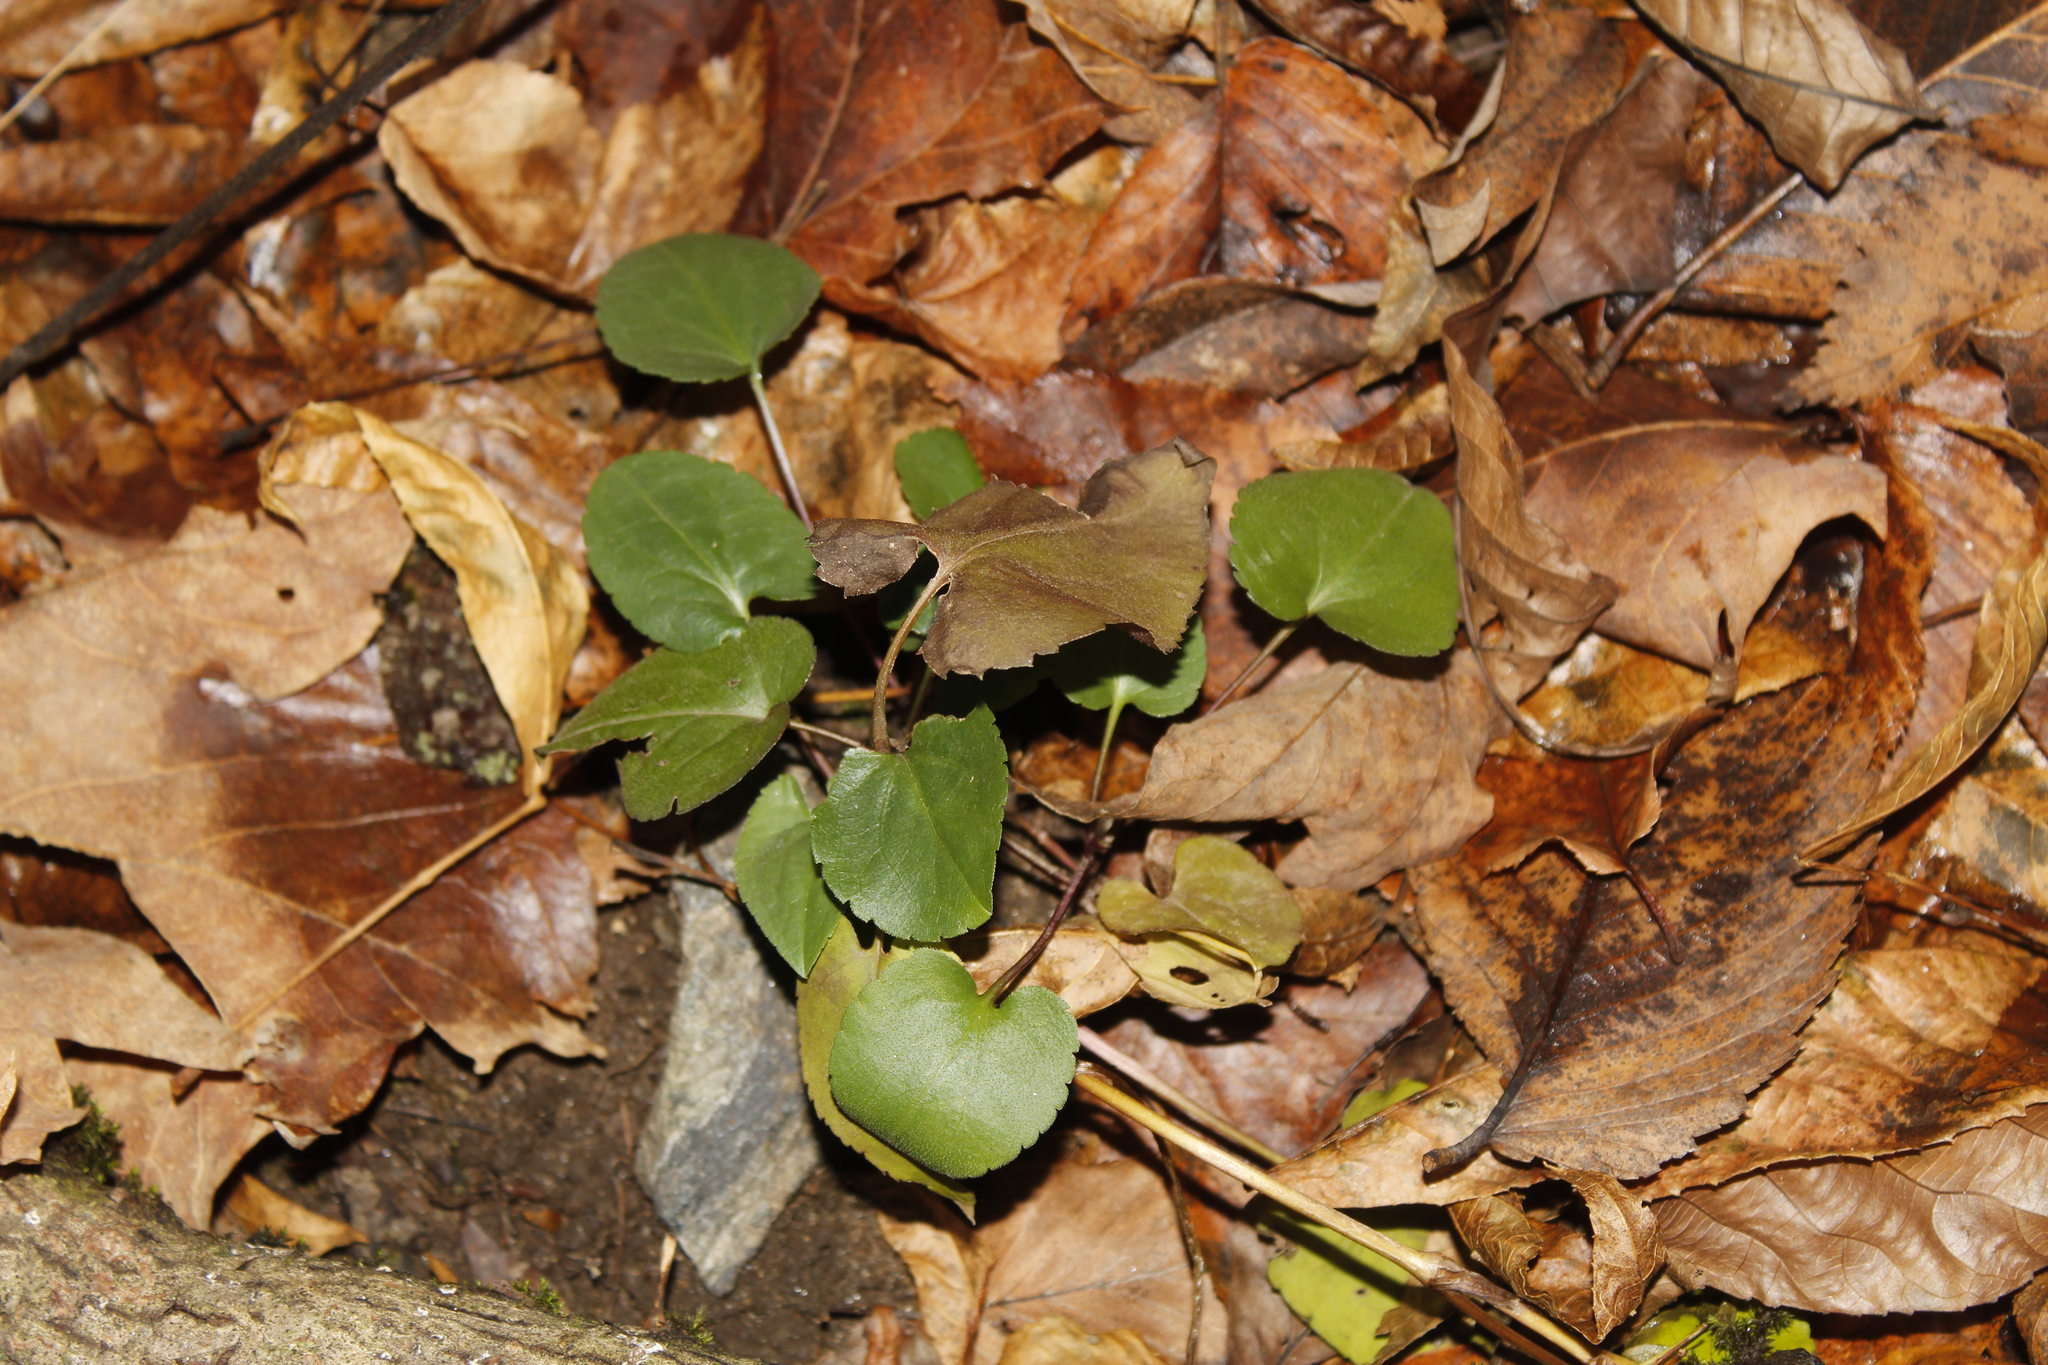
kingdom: Plantae
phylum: Tracheophyta
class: Magnoliopsida
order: Ranunculales
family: Ranunculaceae
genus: Ranunculus
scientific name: Ranunculus abortivus
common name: Early wood buttercup
